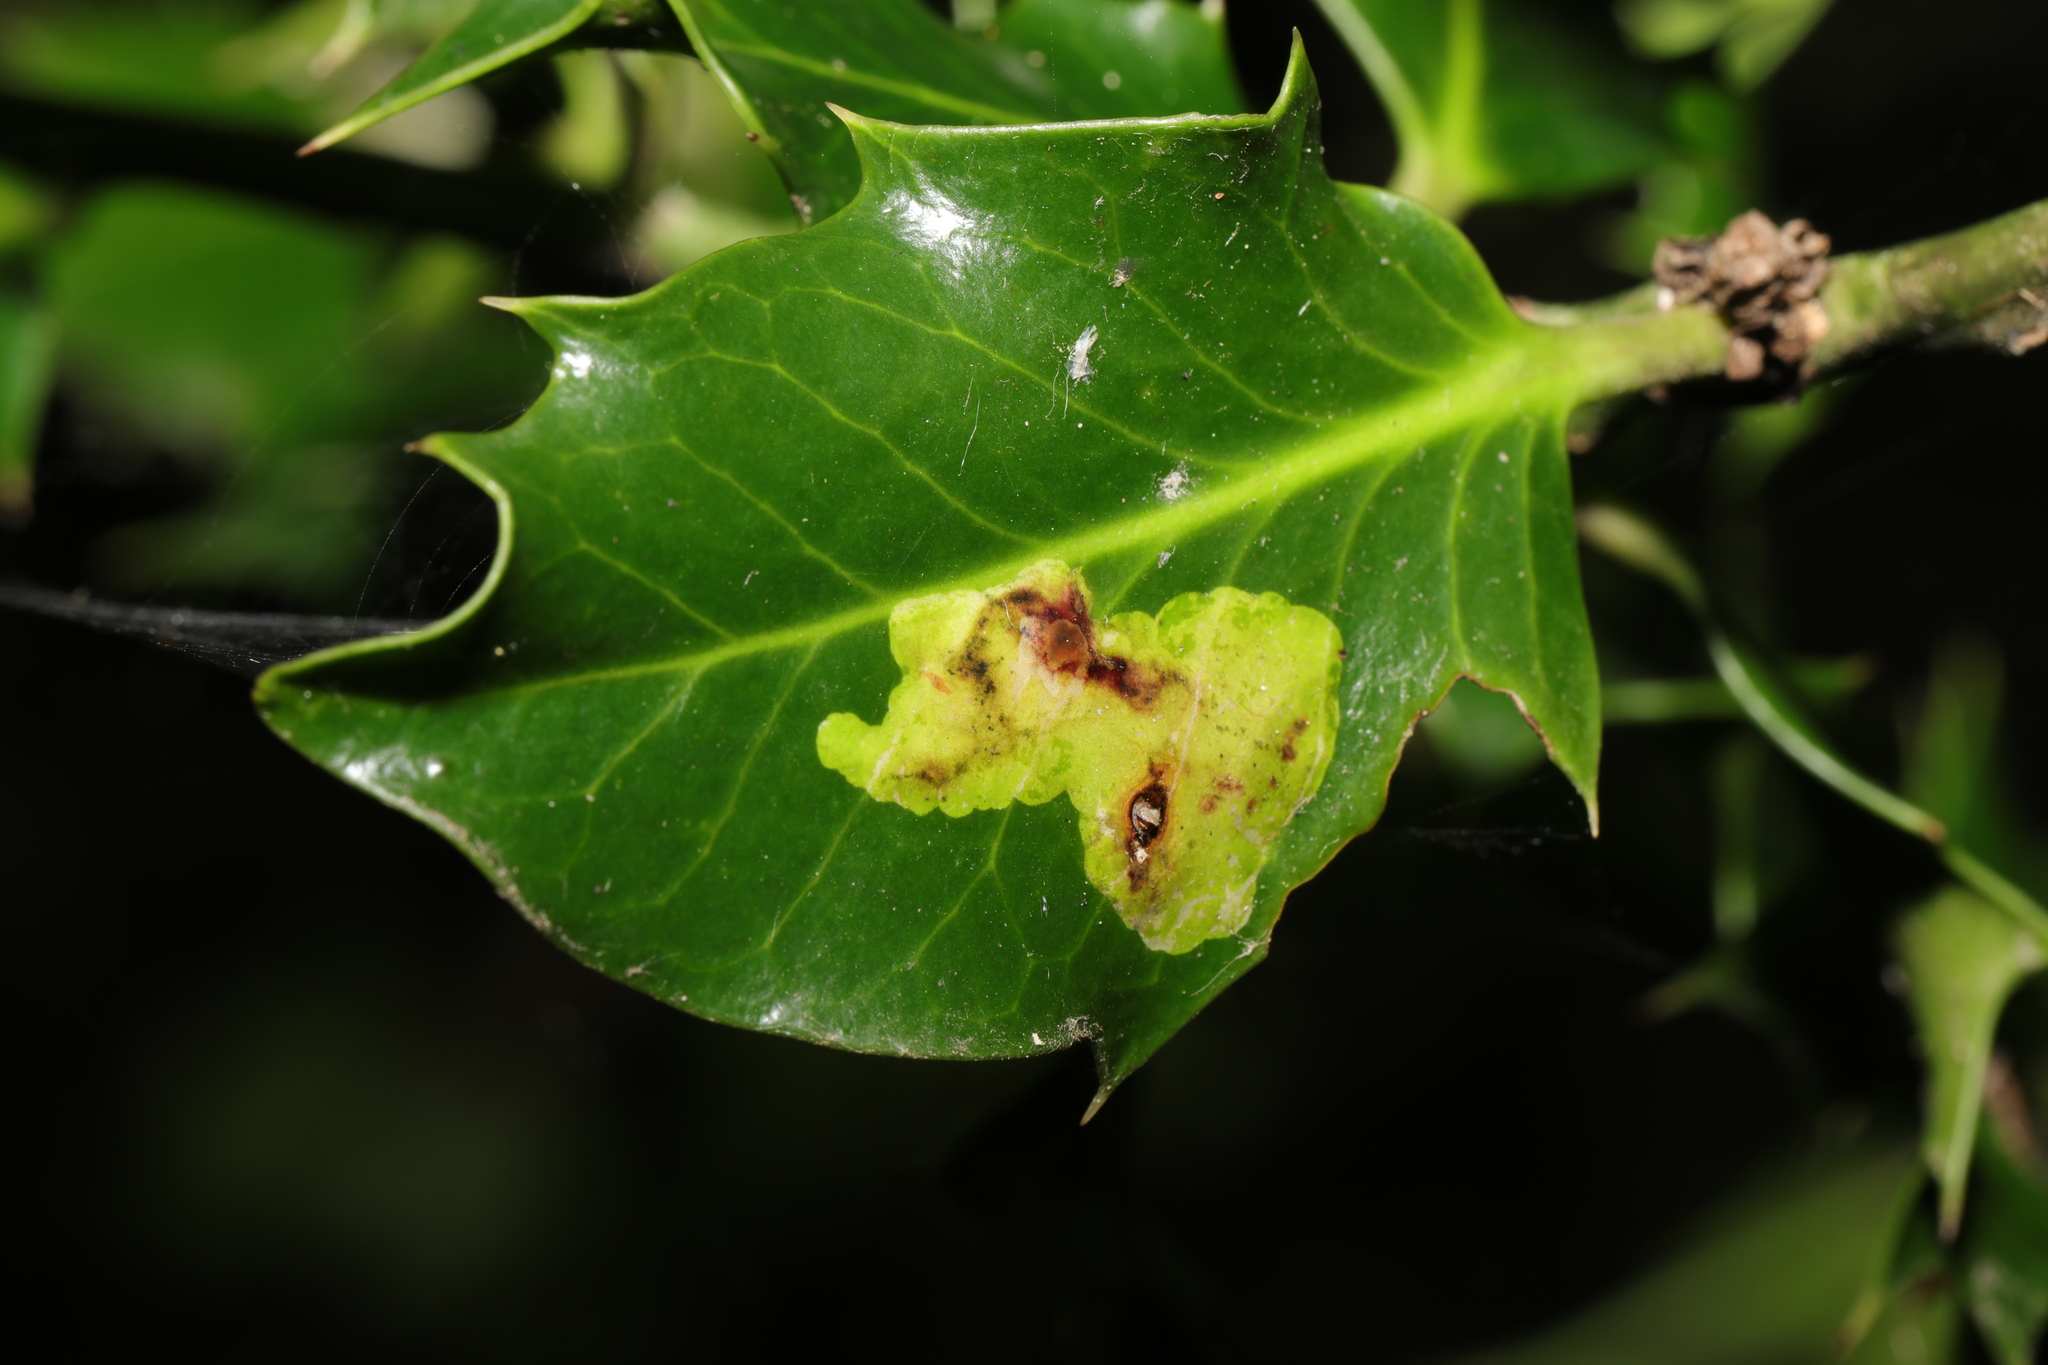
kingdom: Animalia
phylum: Arthropoda
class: Insecta
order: Diptera
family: Agromyzidae
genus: Phytomyza
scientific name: Phytomyza ilicis
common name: Holly leafminer
